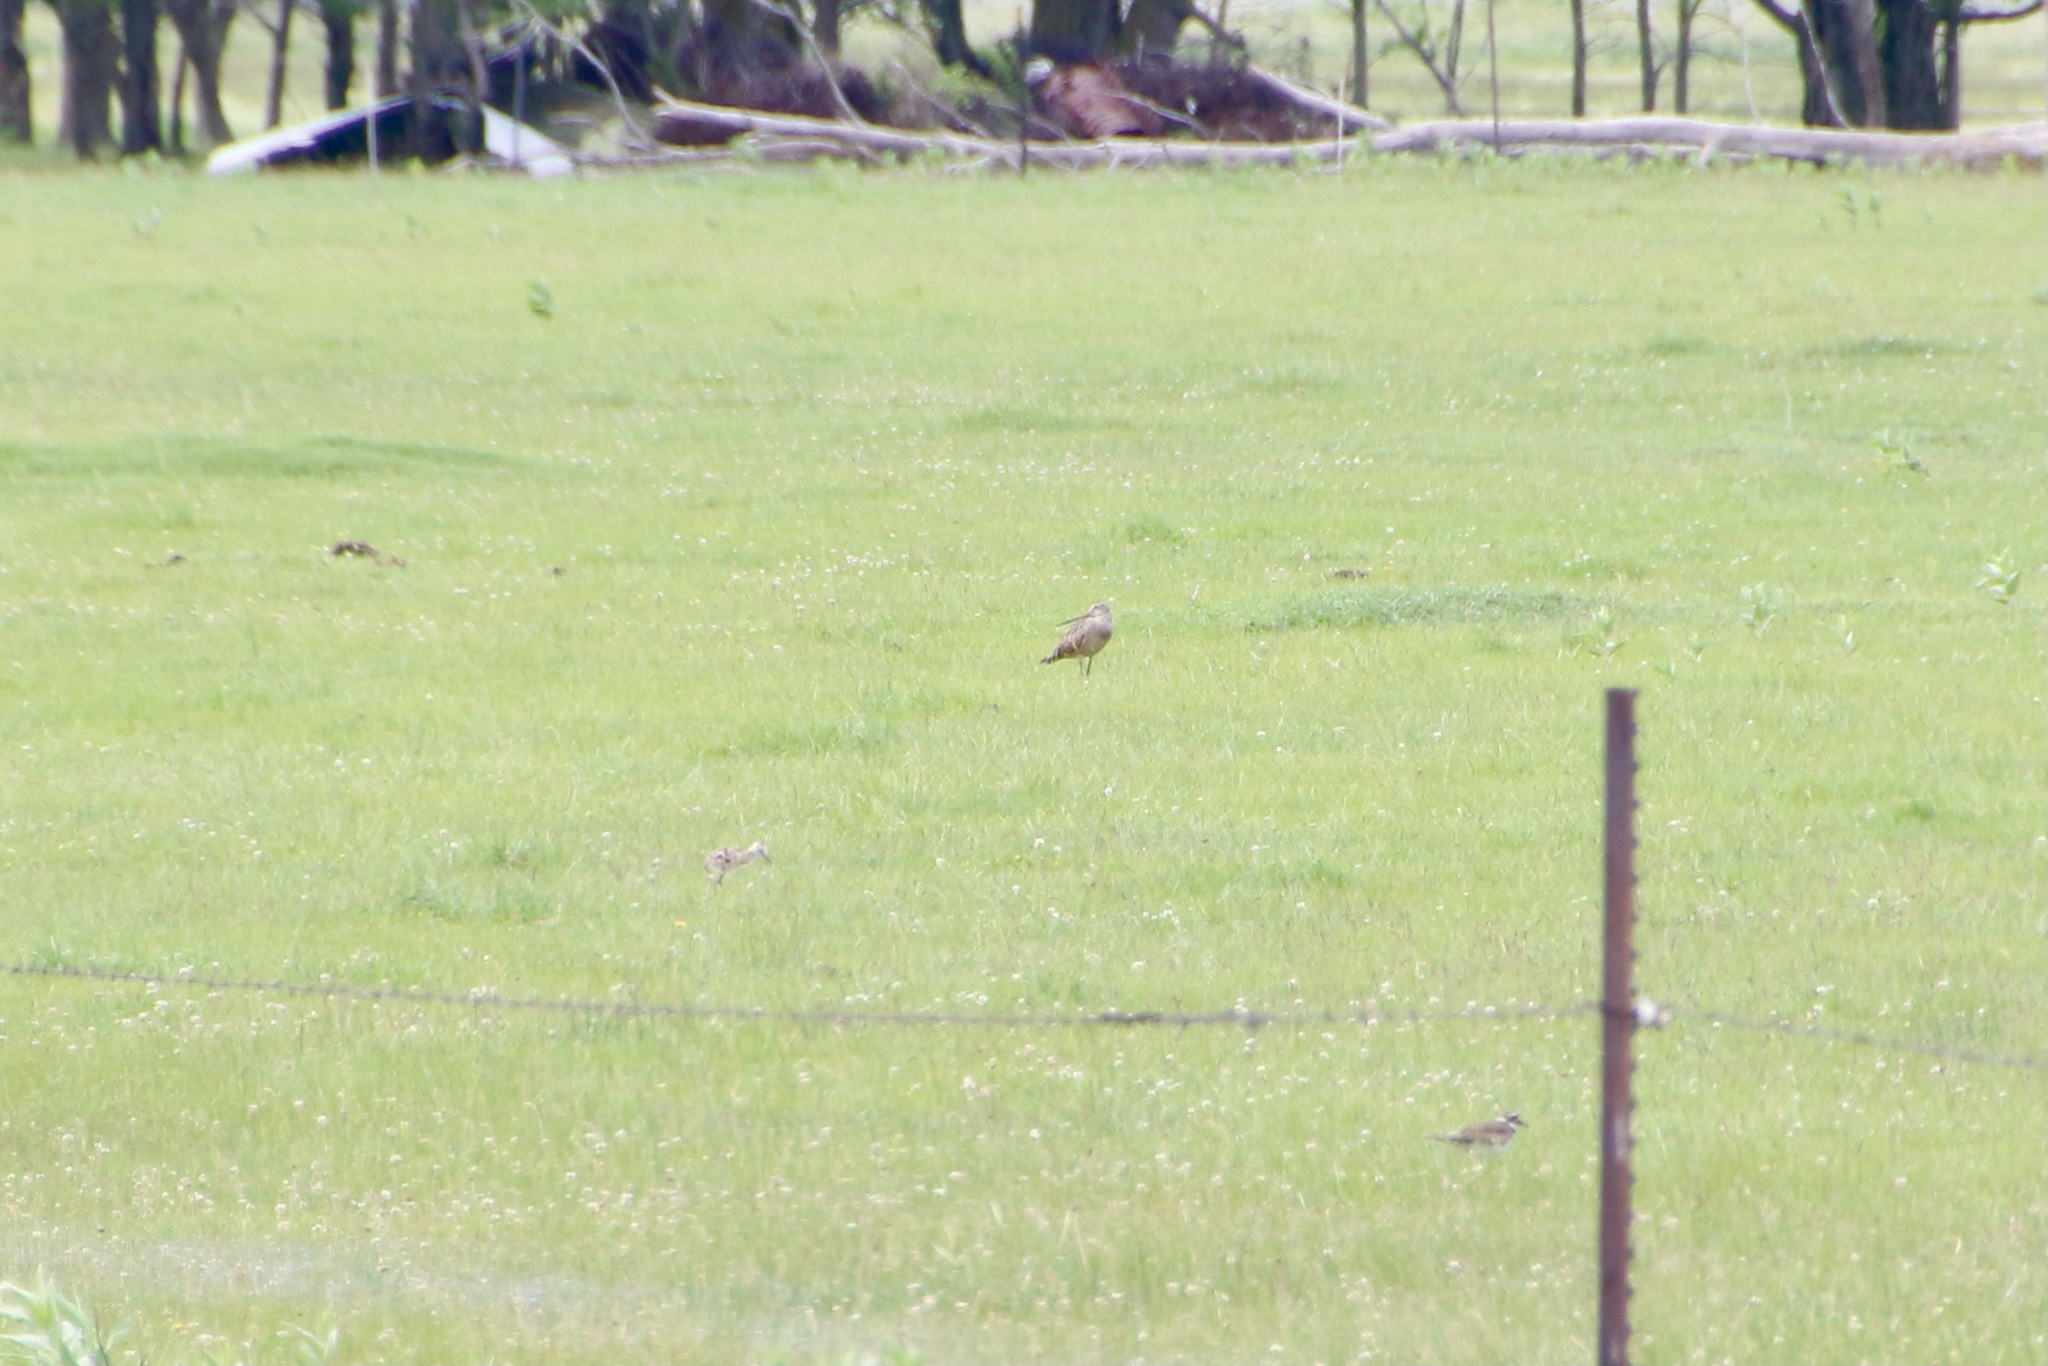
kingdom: Animalia
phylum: Chordata
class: Aves
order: Charadriiformes
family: Scolopacidae
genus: Limosa
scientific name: Limosa fedoa
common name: Marbled godwit
